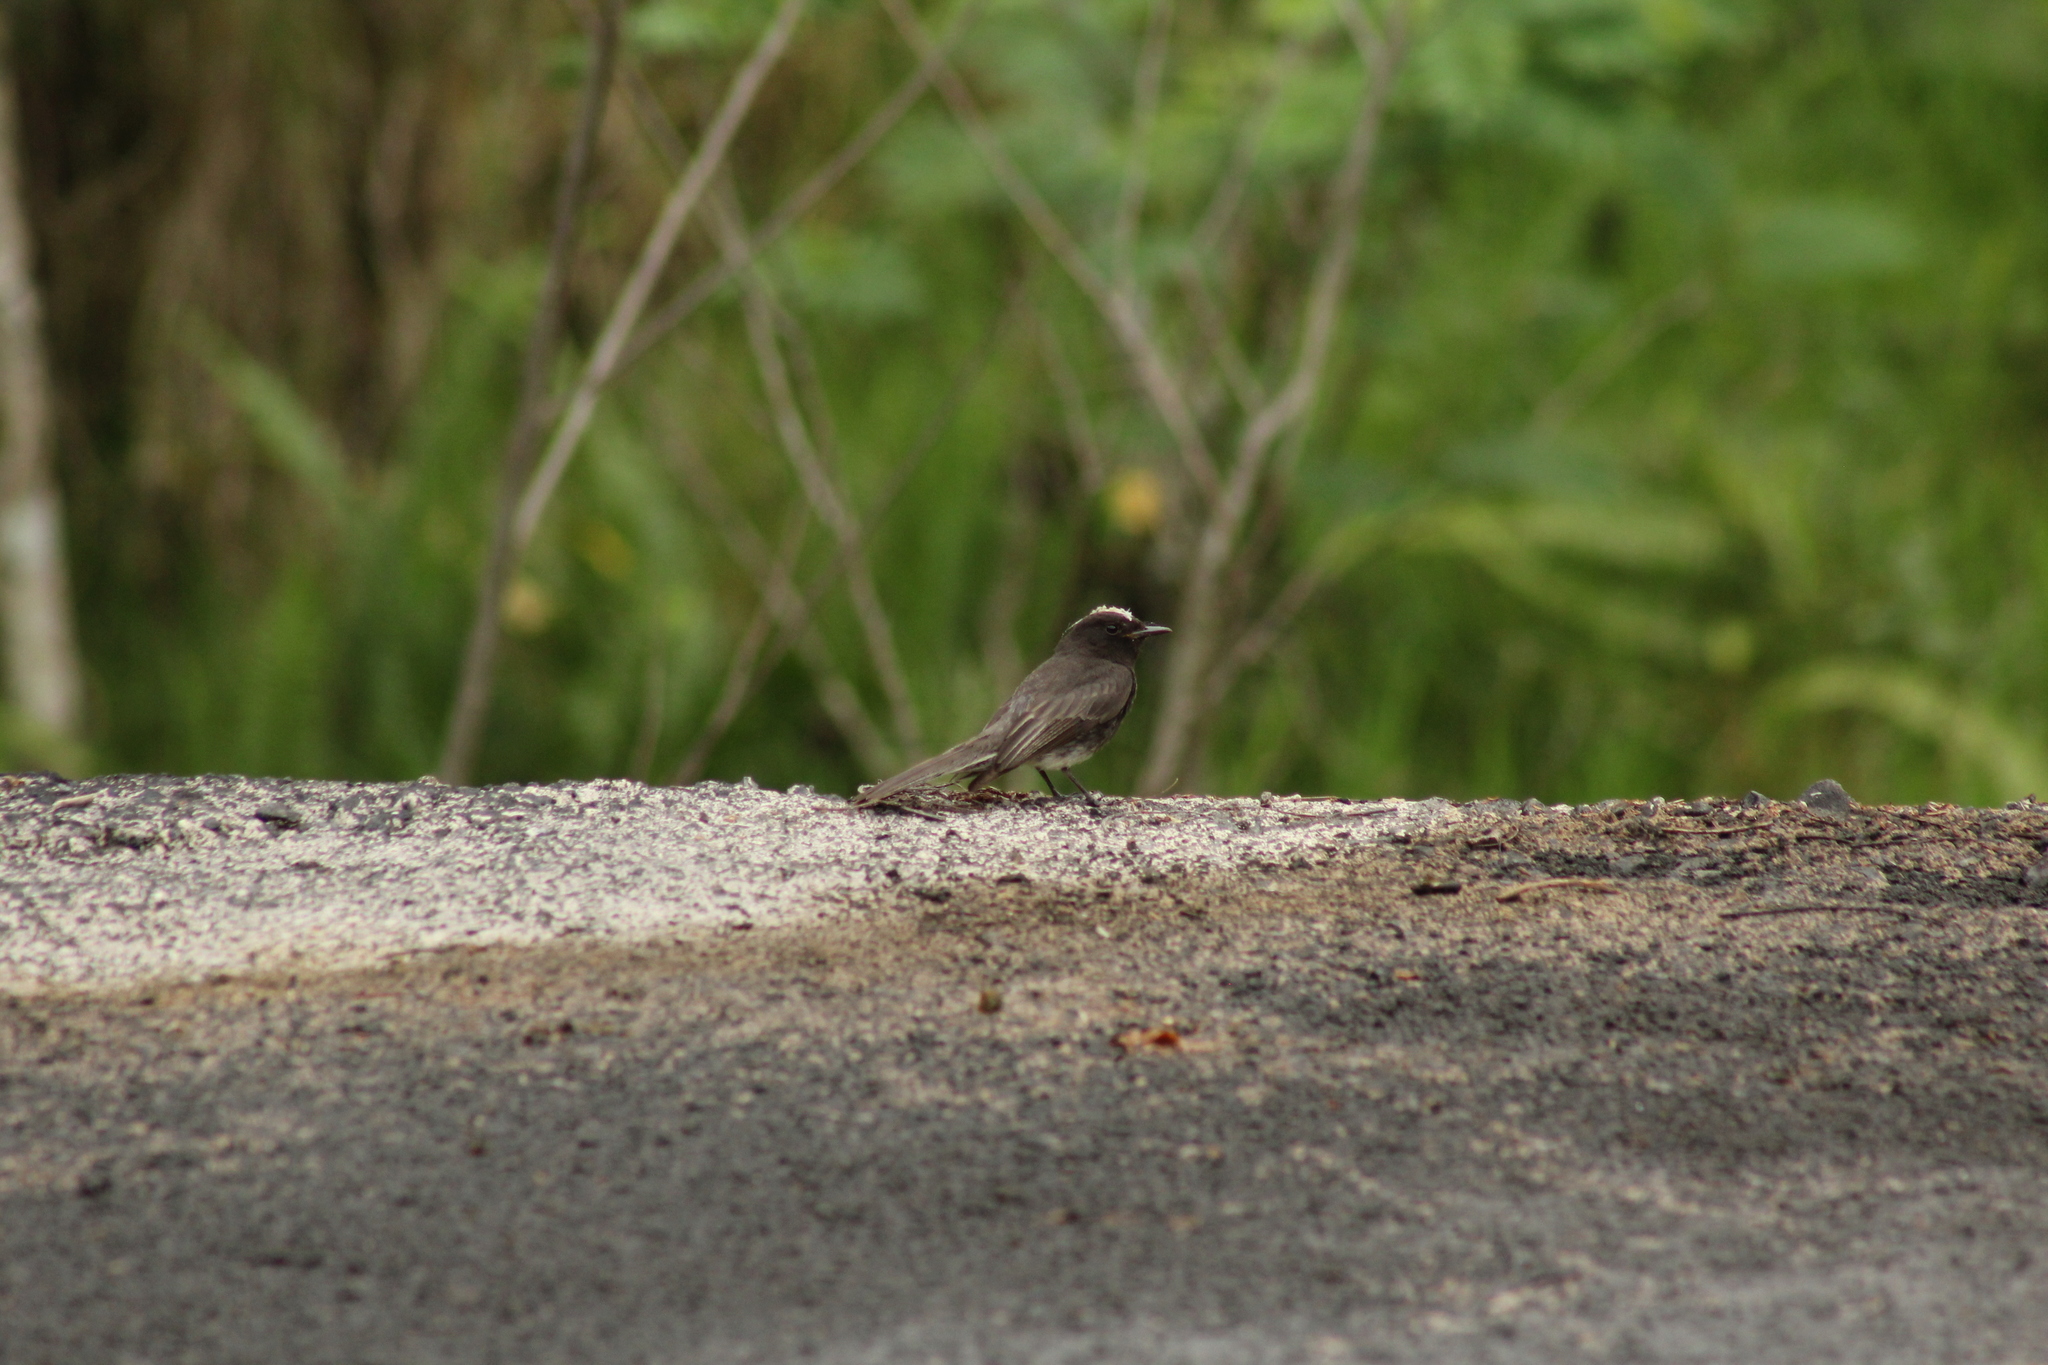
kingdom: Animalia
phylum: Chordata
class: Aves
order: Passeriformes
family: Tyrannidae
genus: Sayornis
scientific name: Sayornis nigricans
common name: Black phoebe
